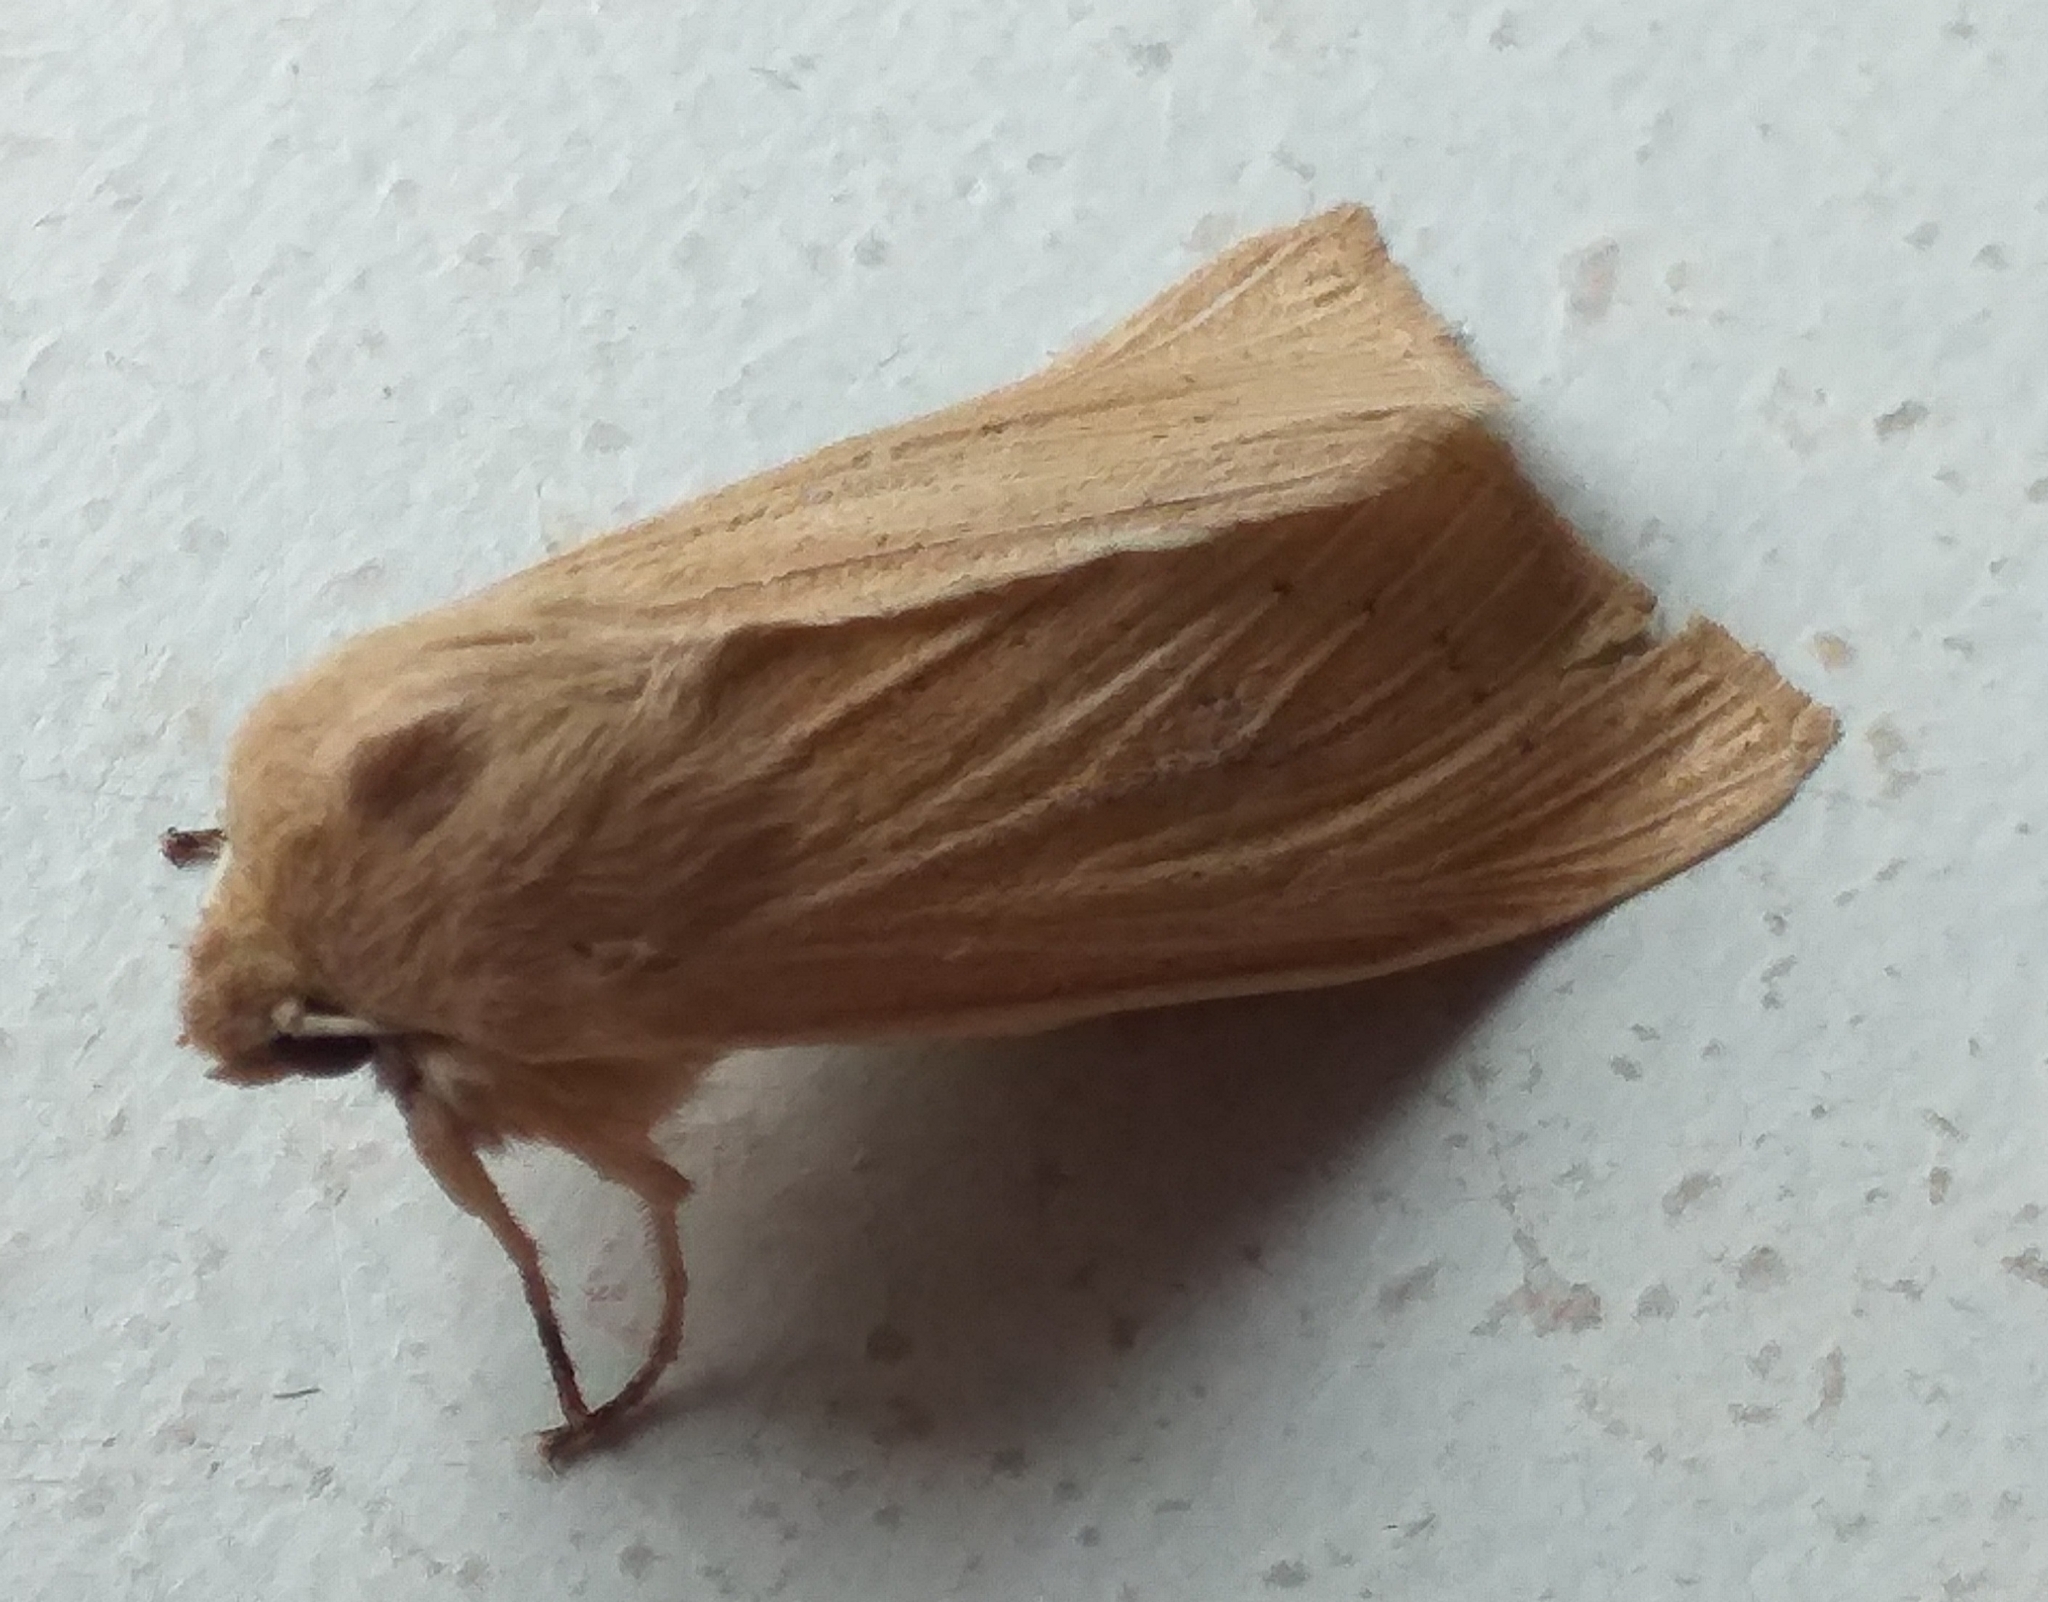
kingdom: Animalia
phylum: Arthropoda
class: Insecta
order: Lepidoptera
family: Noctuidae
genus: Rhizedra
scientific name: Rhizedra lutosa
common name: Large wainscot
